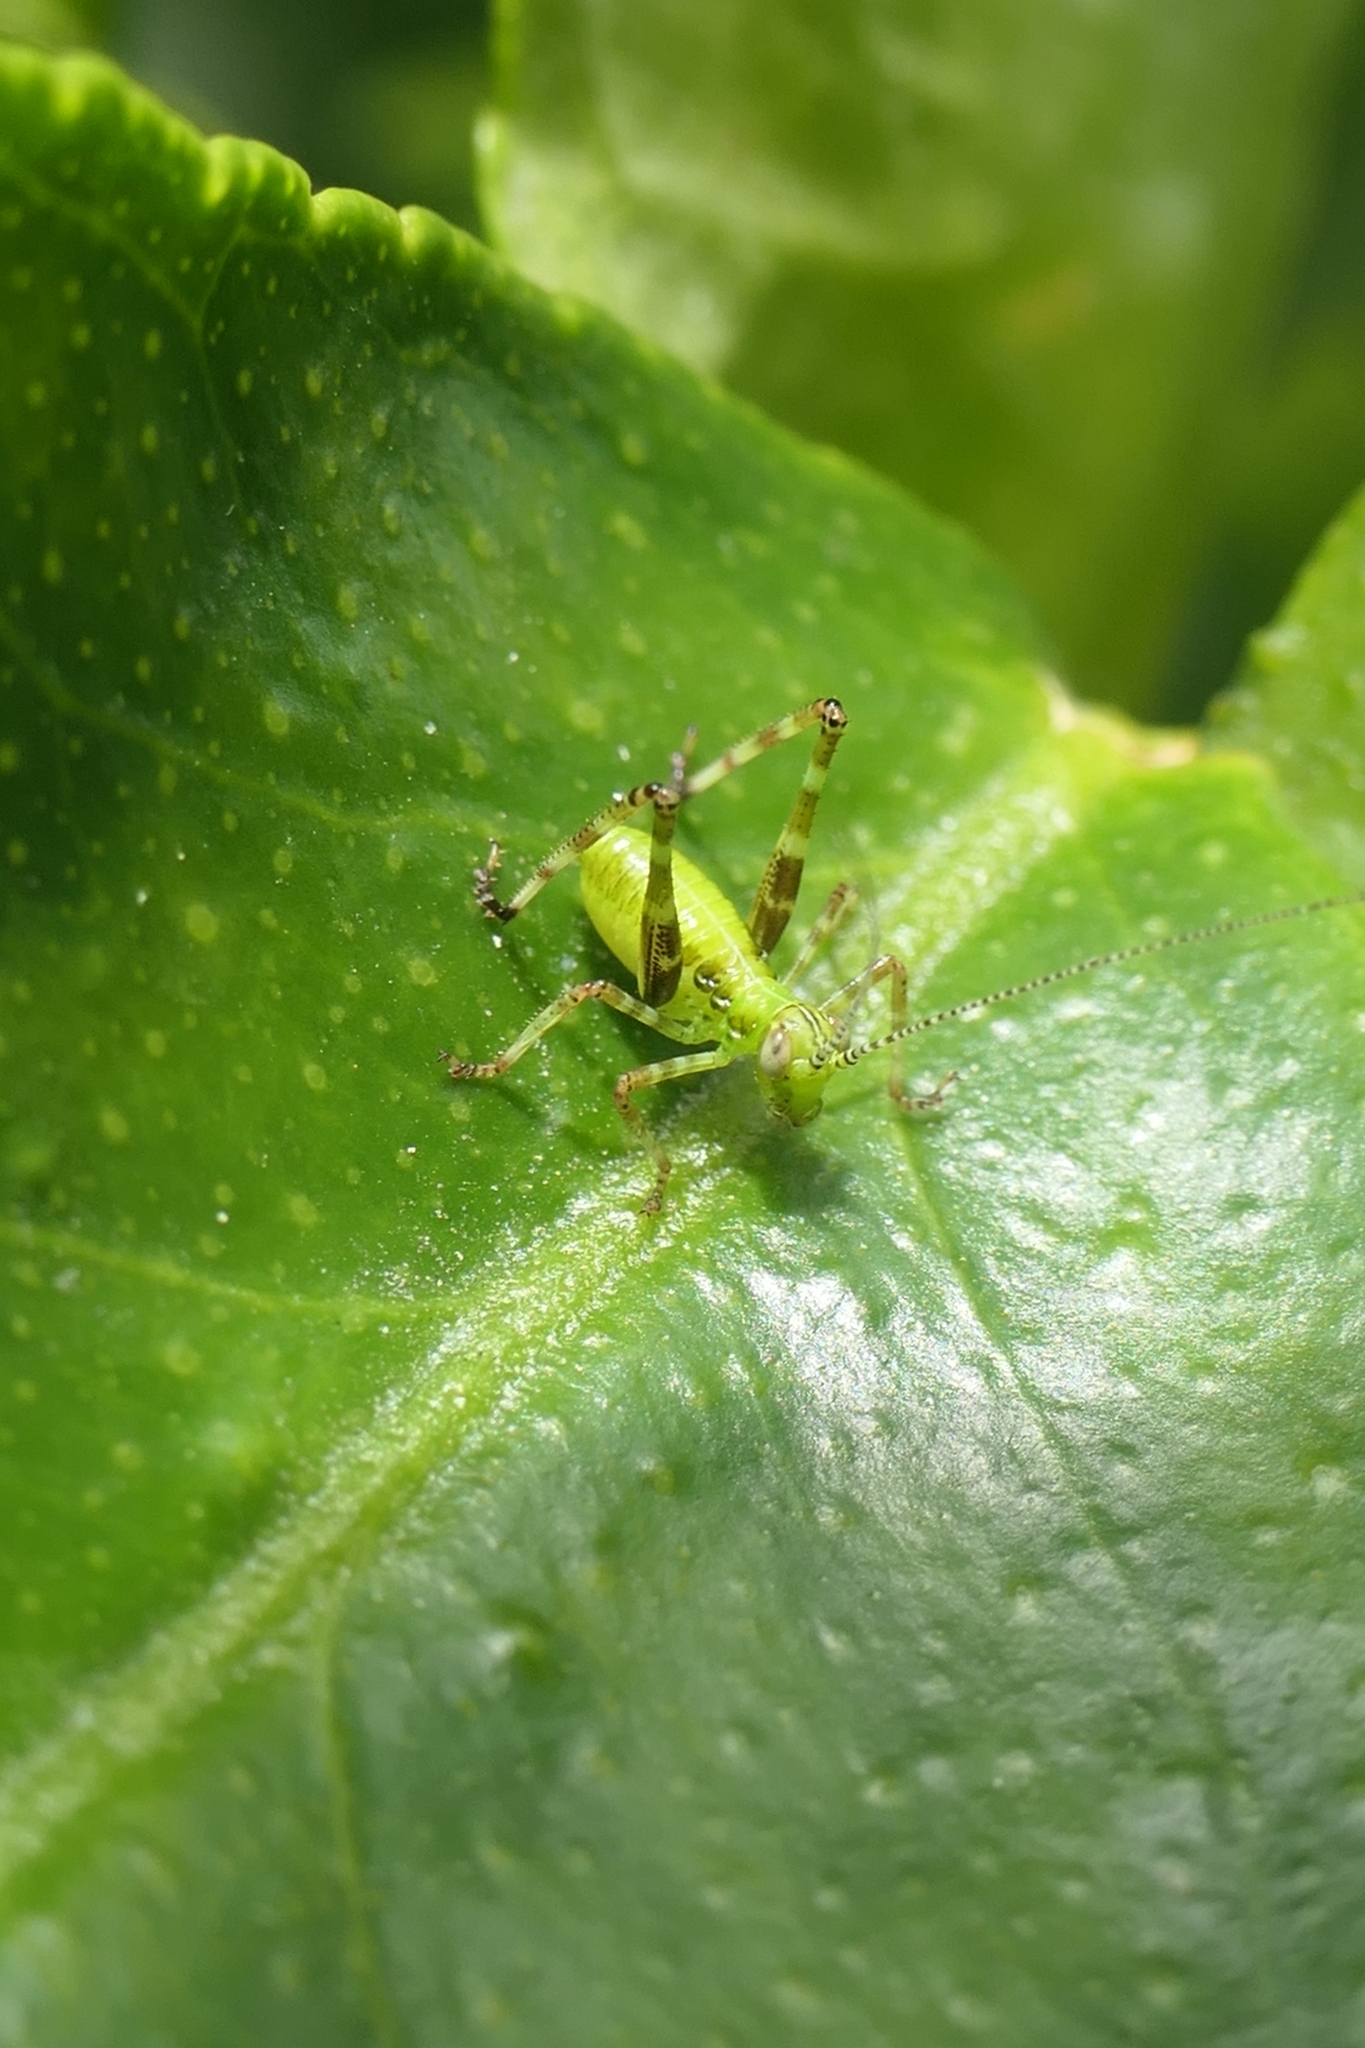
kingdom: Animalia
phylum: Arthropoda
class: Insecta
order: Orthoptera
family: Tettigoniidae
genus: Caedicia
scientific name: Caedicia simplex
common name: Common garden katydid
